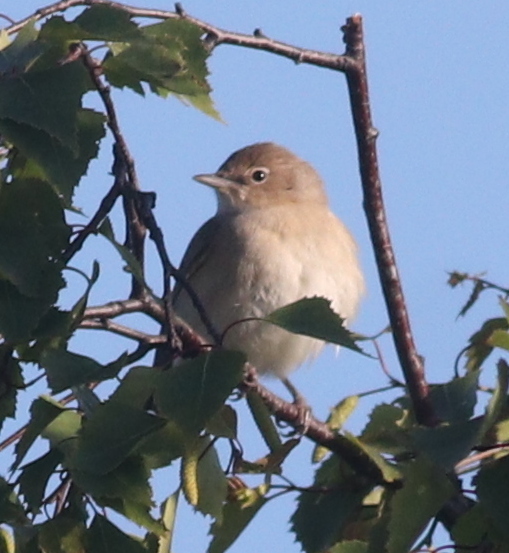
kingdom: Animalia
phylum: Chordata
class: Aves
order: Passeriformes
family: Sylviidae
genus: Sylvia
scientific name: Sylvia borin
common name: Garden warbler
